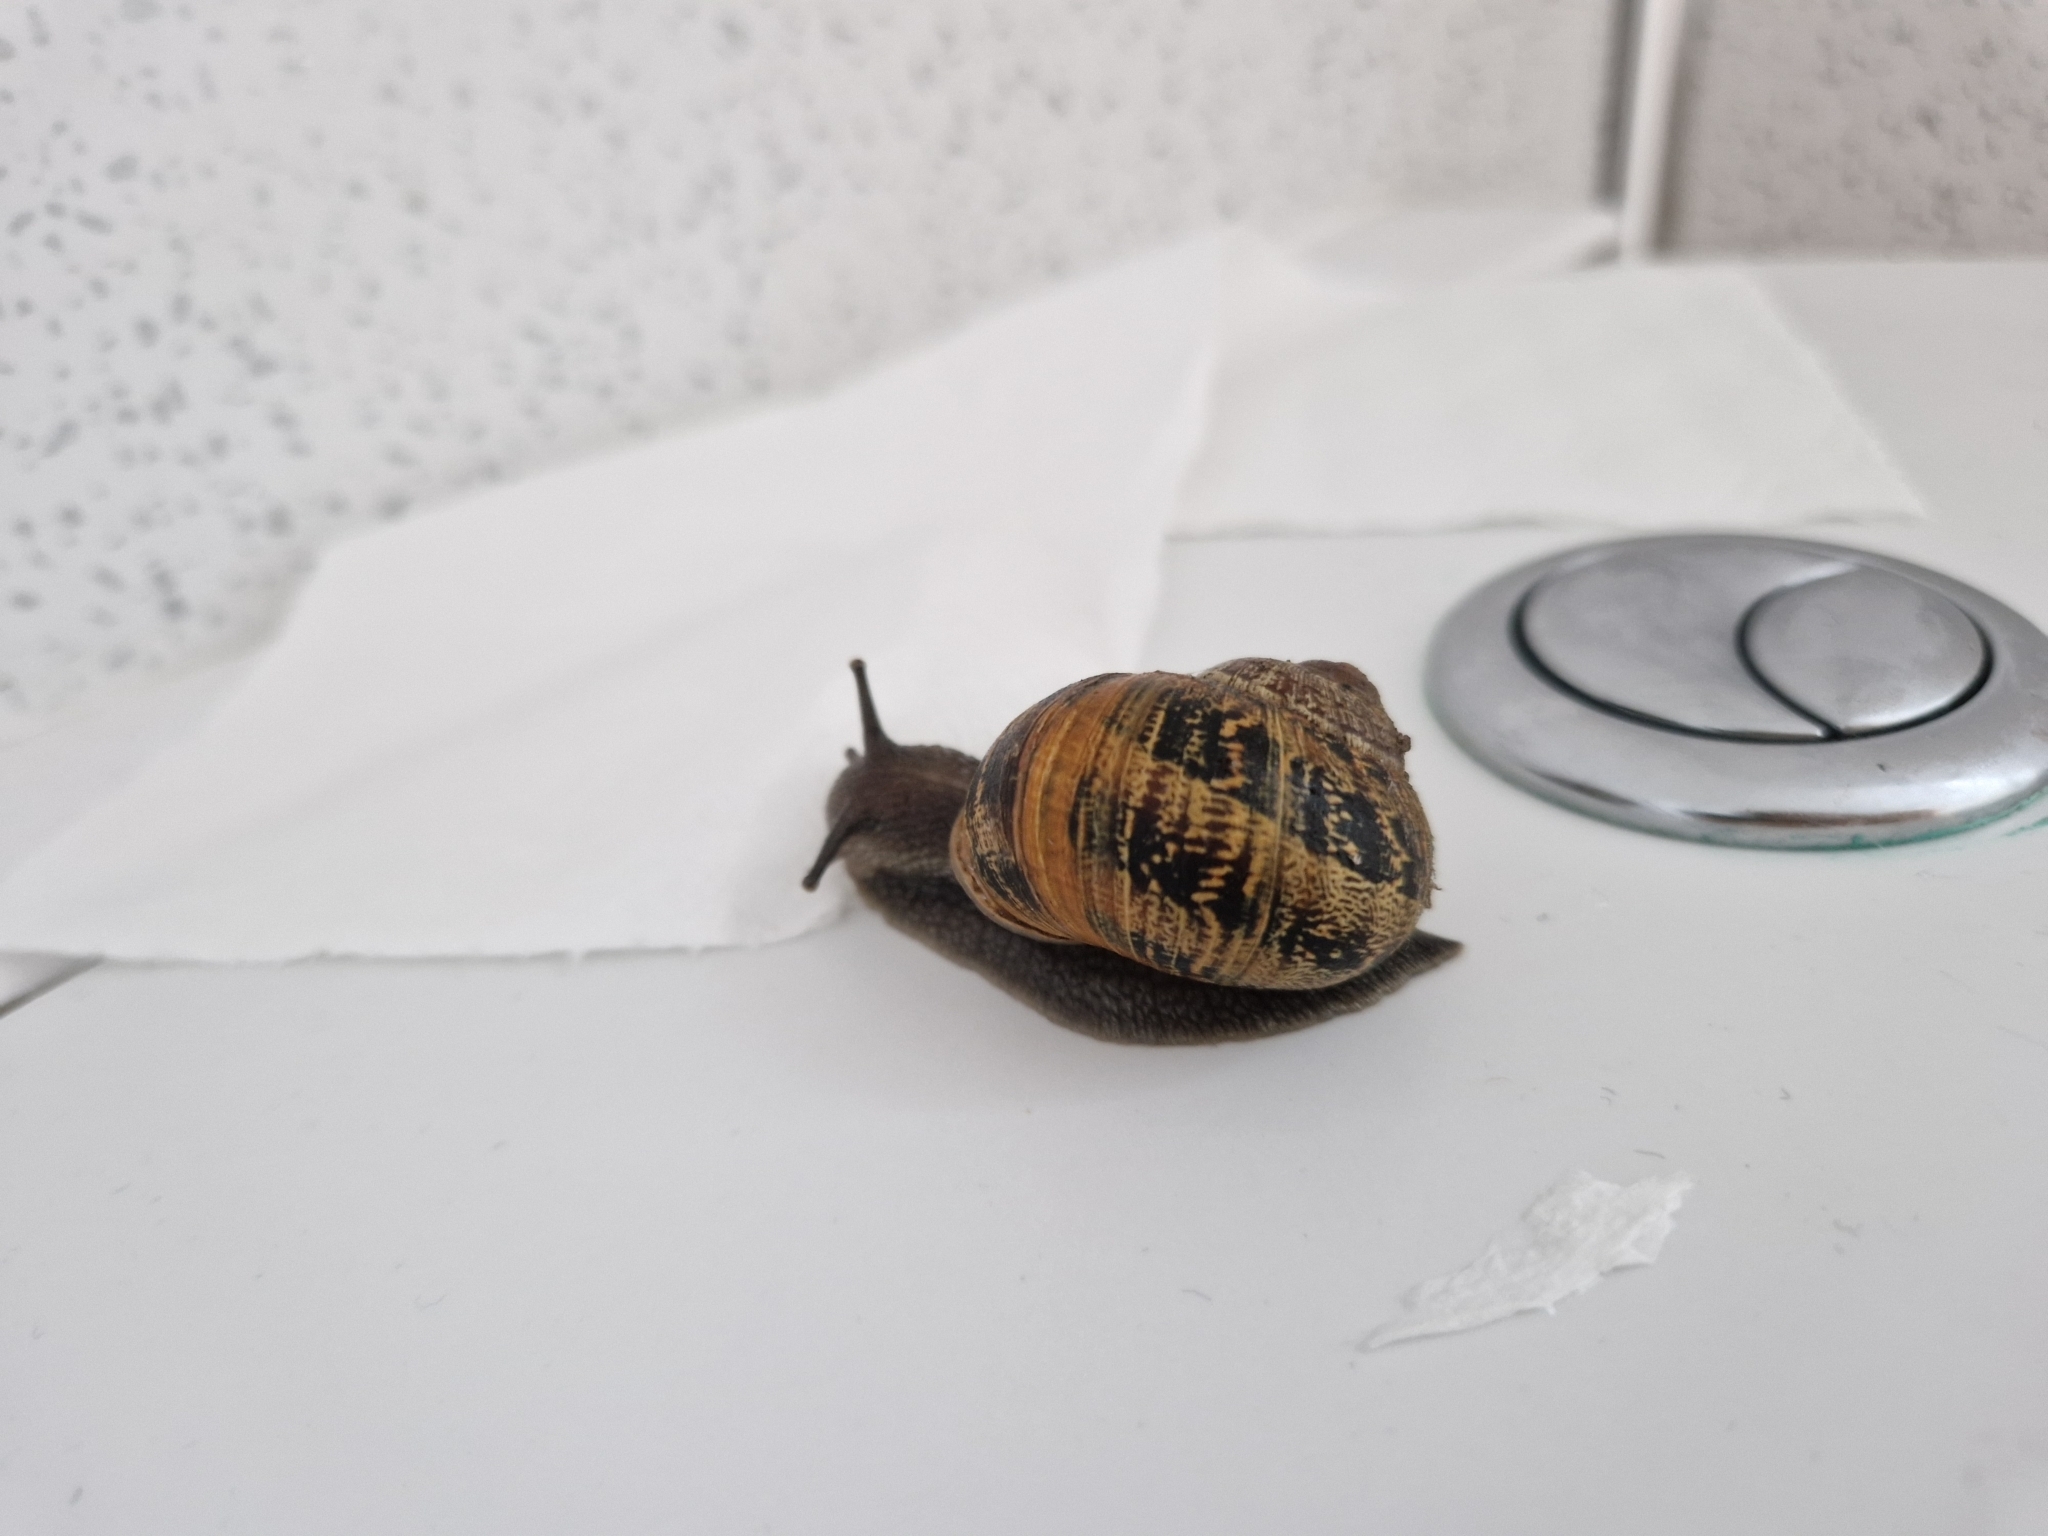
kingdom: Animalia
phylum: Mollusca
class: Gastropoda
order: Stylommatophora
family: Helicidae
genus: Cornu
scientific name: Cornu aspersum
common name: Brown garden snail
